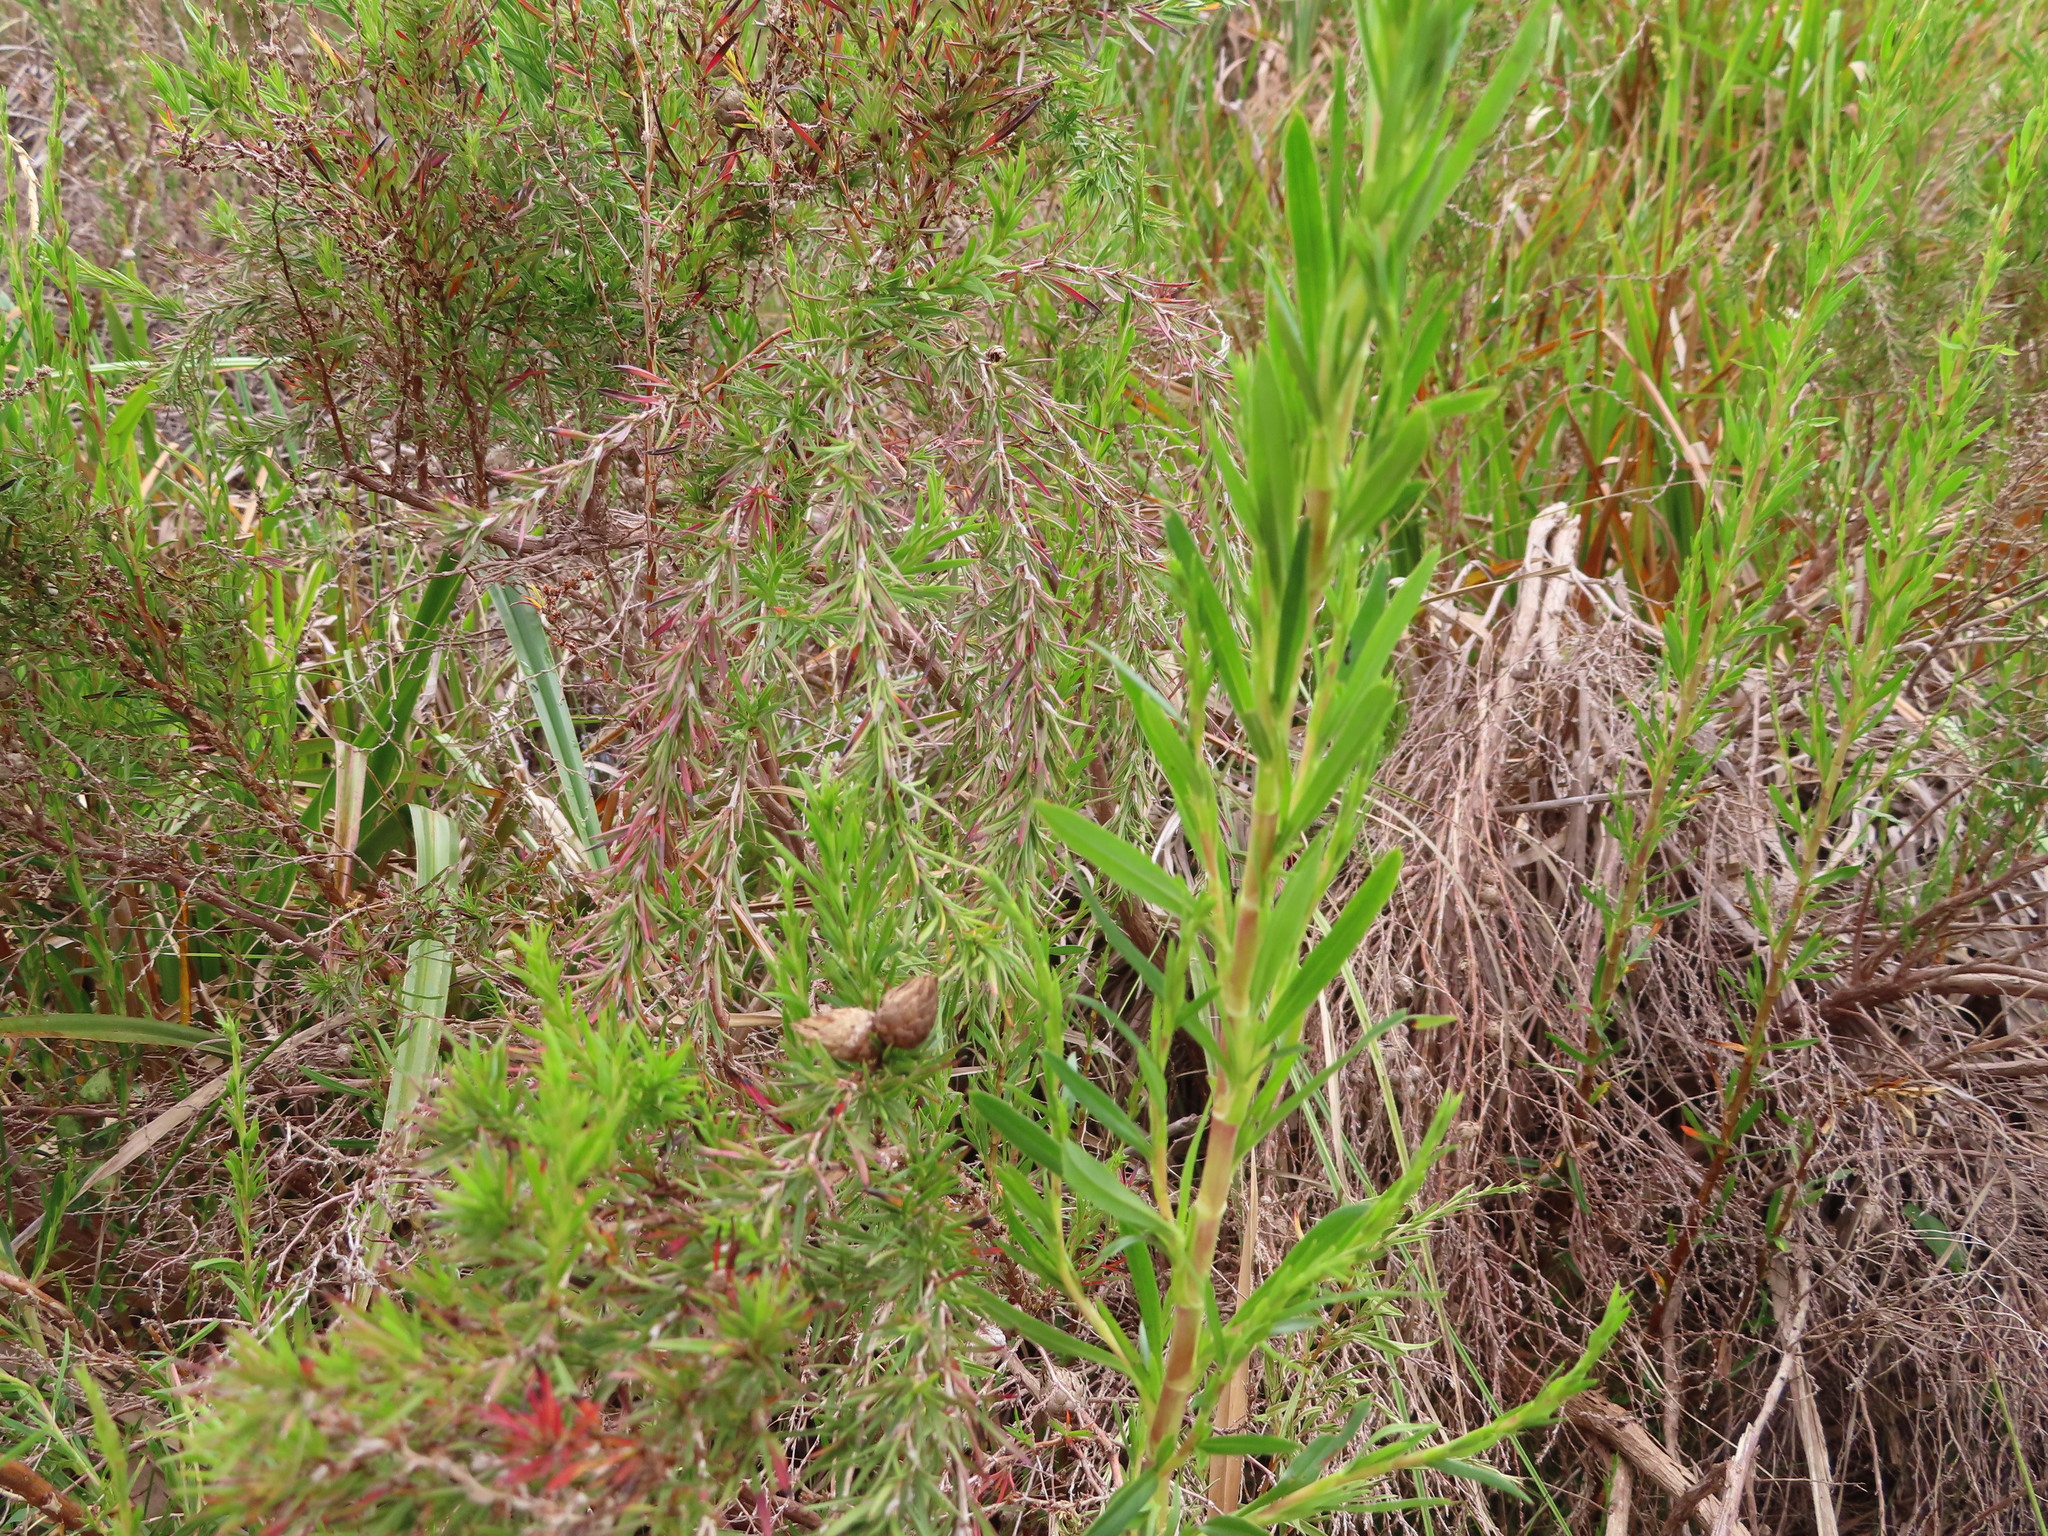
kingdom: Plantae
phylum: Tracheophyta
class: Magnoliopsida
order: Rosales
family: Rosaceae
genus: Cliffortia
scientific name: Cliffortia strobilifera
